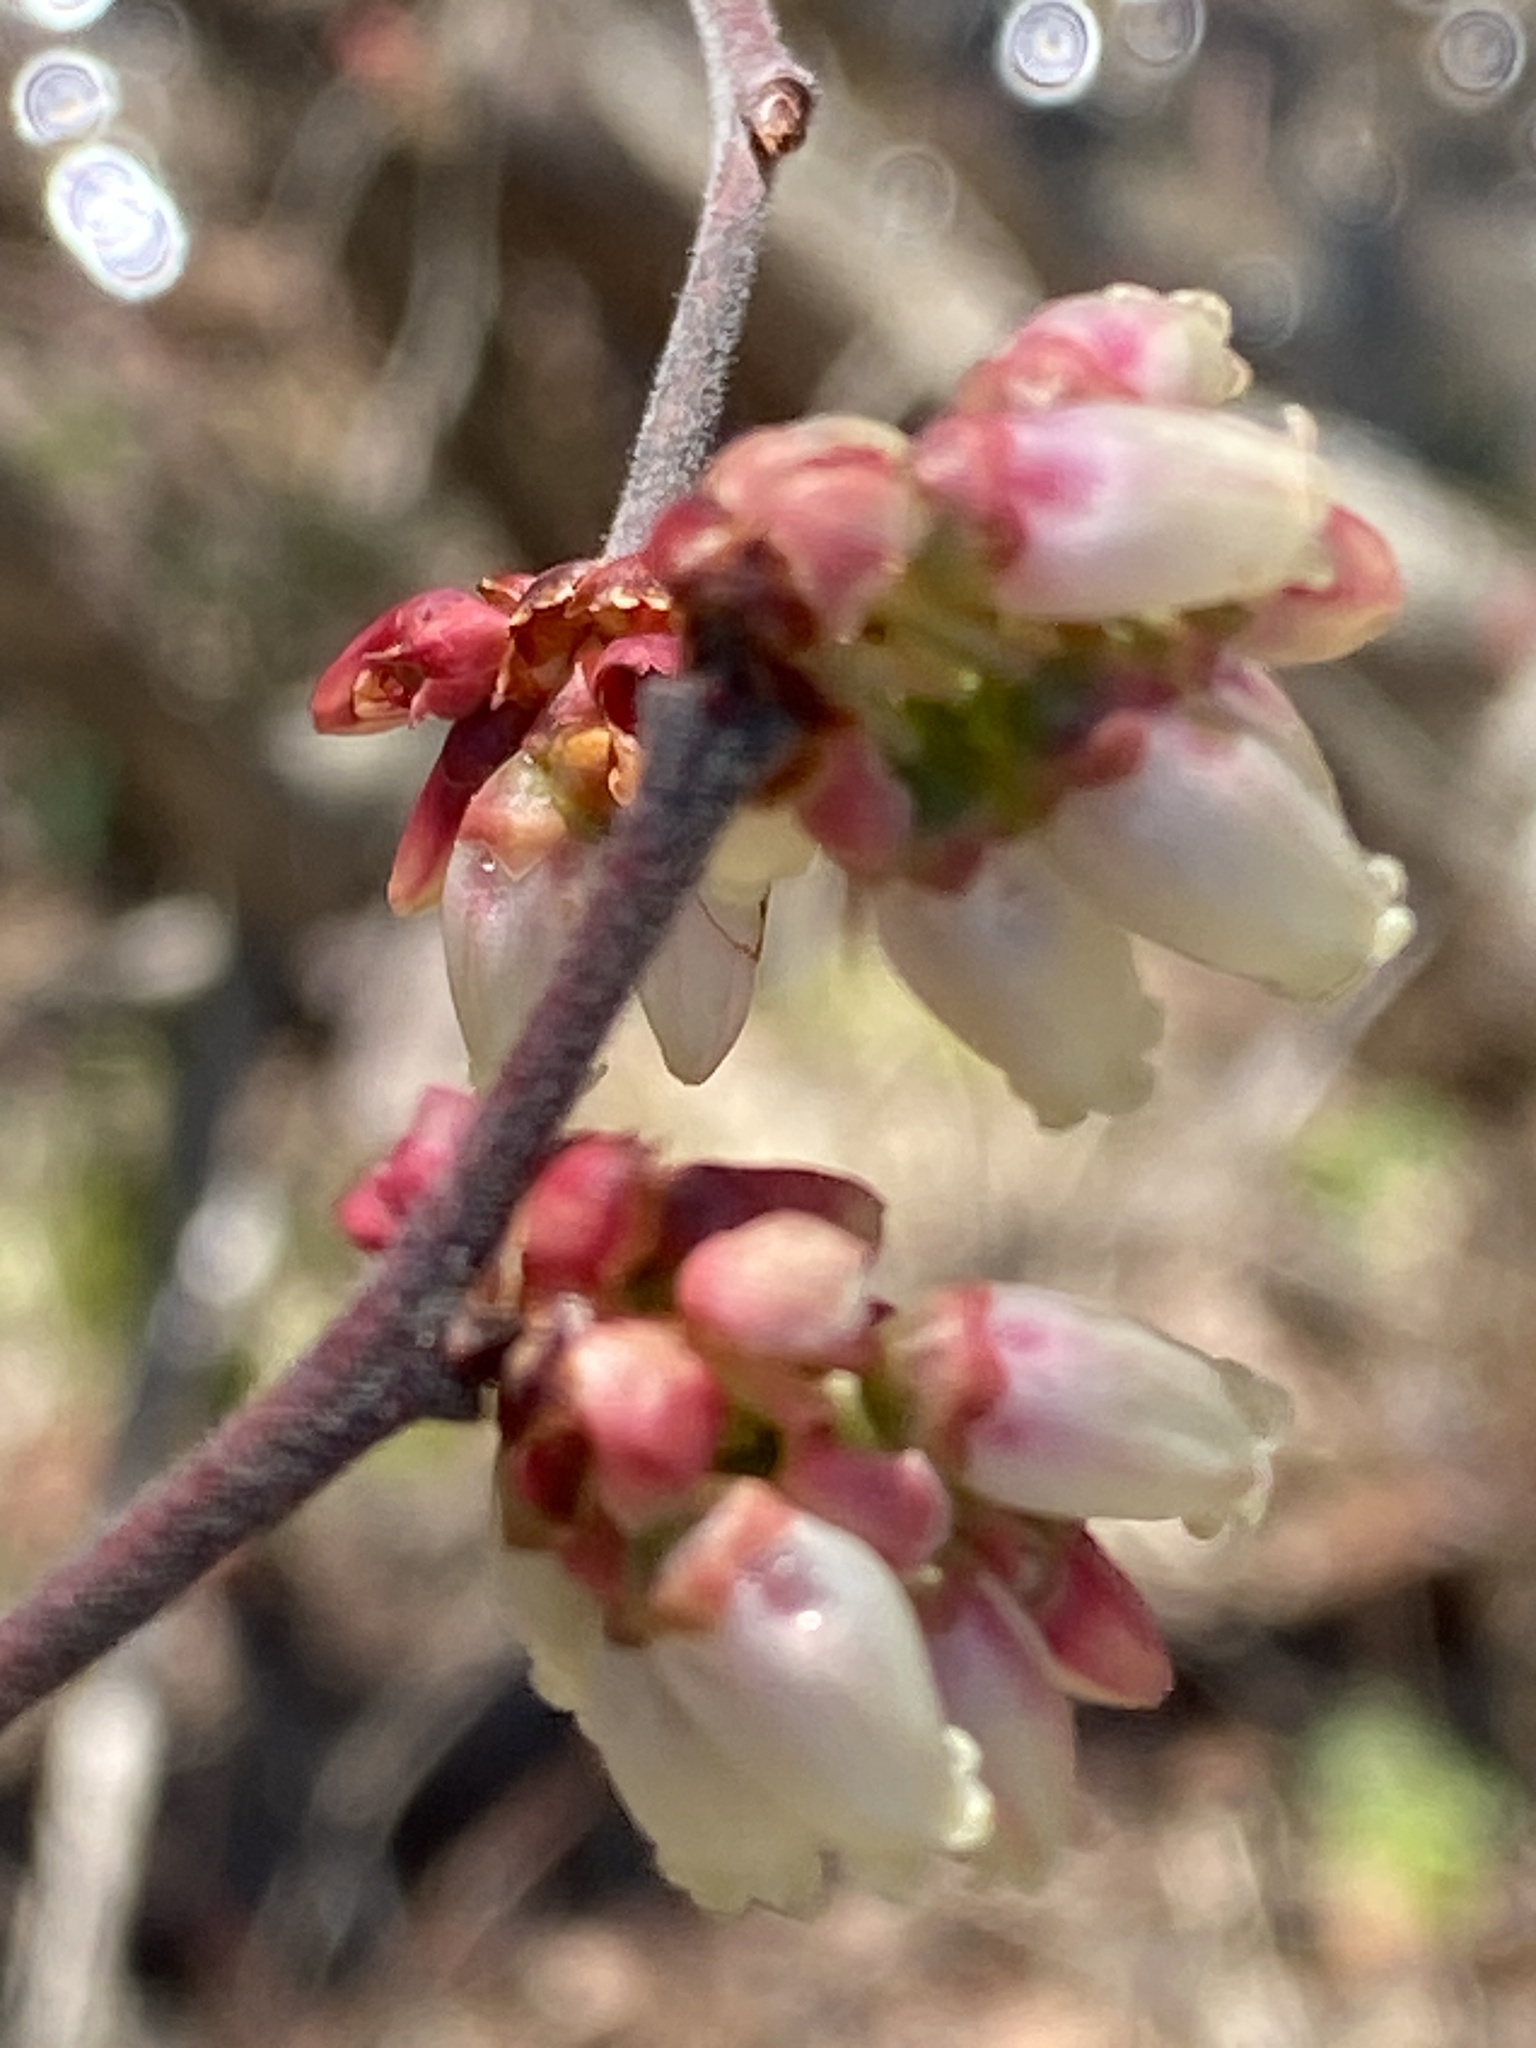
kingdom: Plantae
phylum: Tracheophyta
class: Magnoliopsida
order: Ericales
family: Ericaceae
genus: Vaccinium
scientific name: Vaccinium corymbosum
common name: Blueberry
